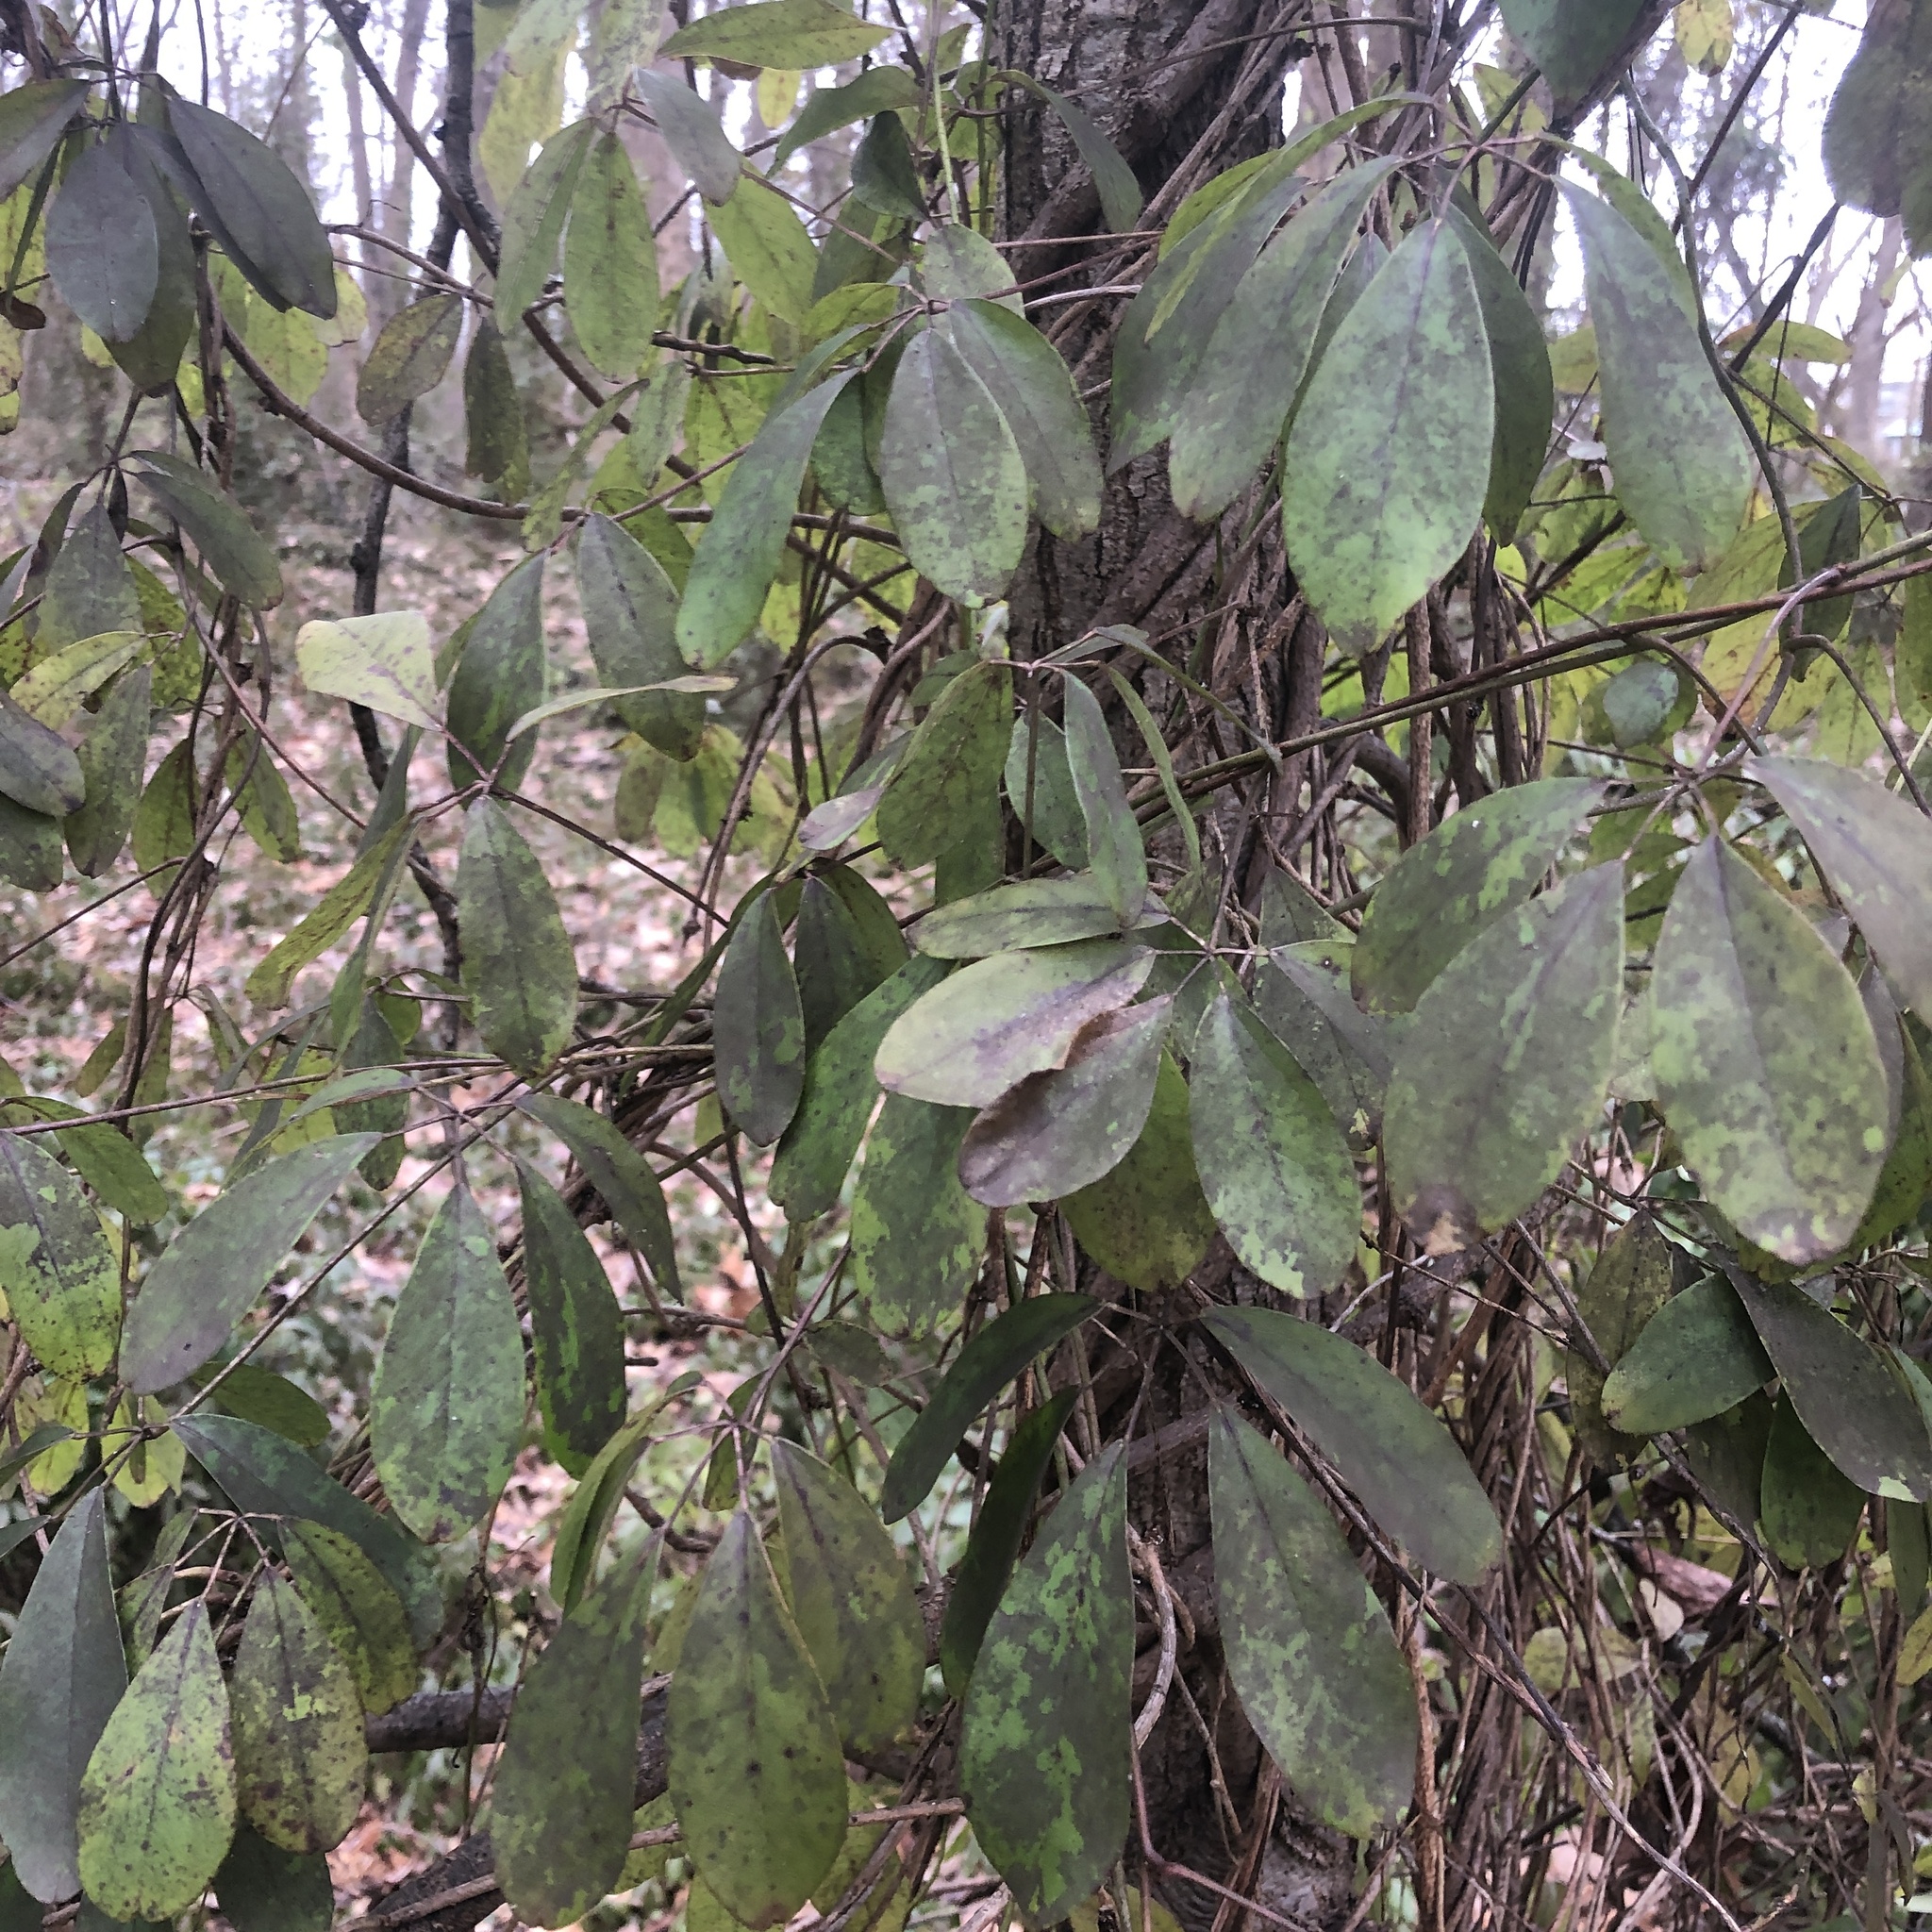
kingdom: Plantae
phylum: Tracheophyta
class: Magnoliopsida
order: Ranunculales
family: Lardizabalaceae
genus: Akebia
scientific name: Akebia quinata
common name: Five-leaf akebia
